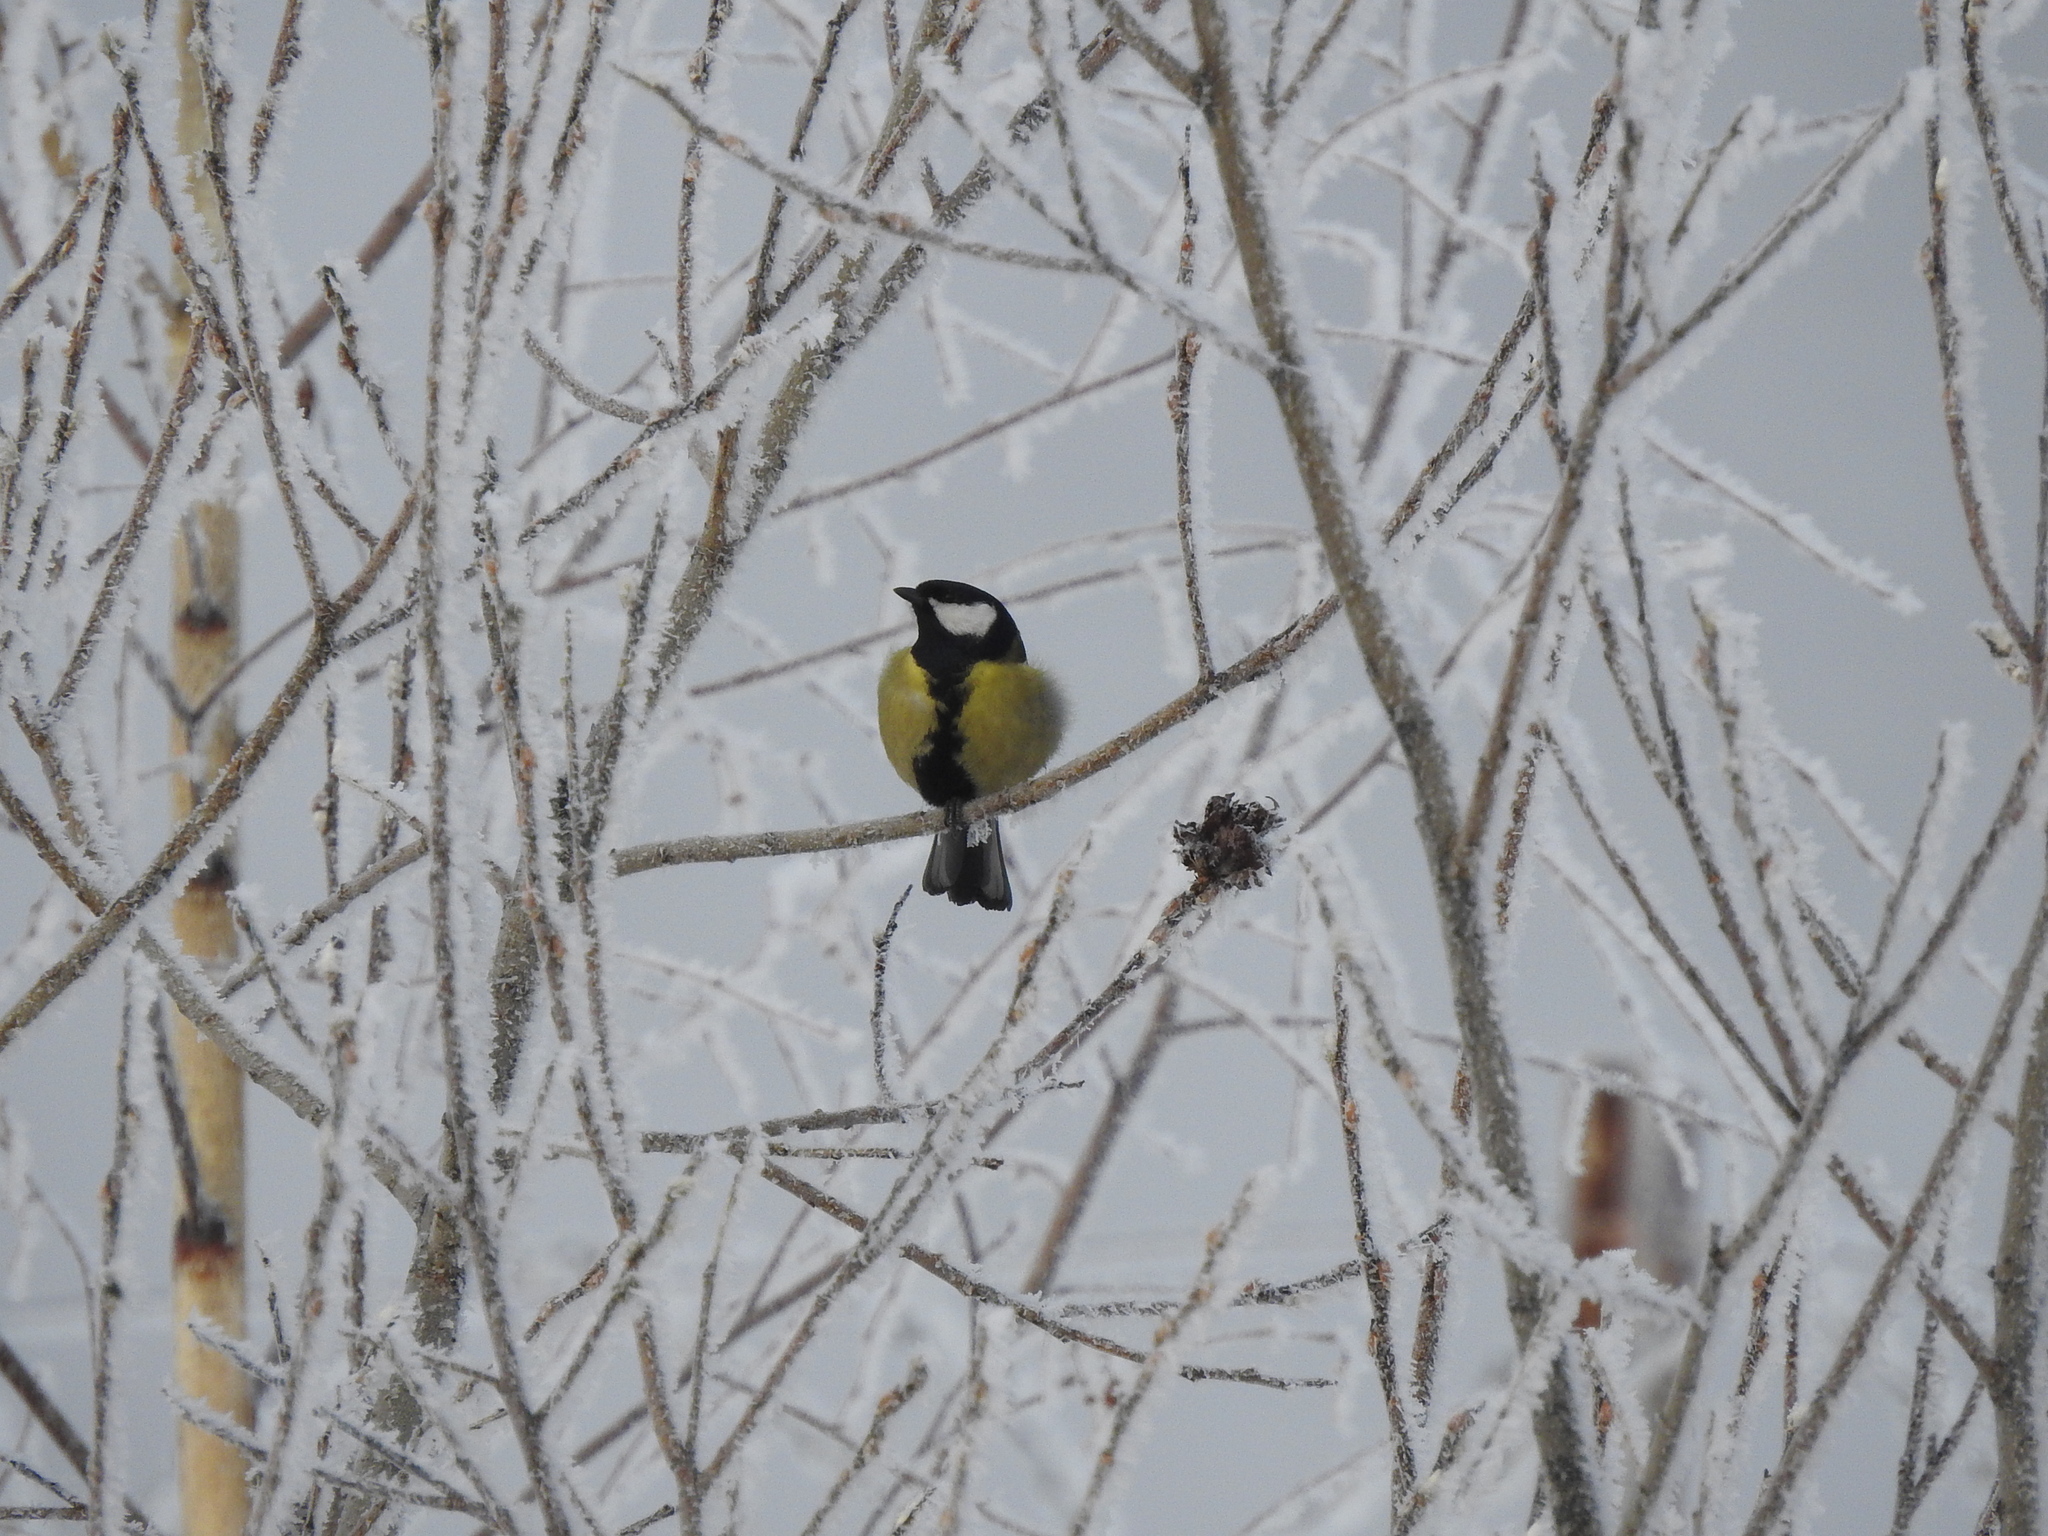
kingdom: Animalia
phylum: Chordata
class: Aves
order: Passeriformes
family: Paridae
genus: Parus
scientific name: Parus major
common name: Great tit
